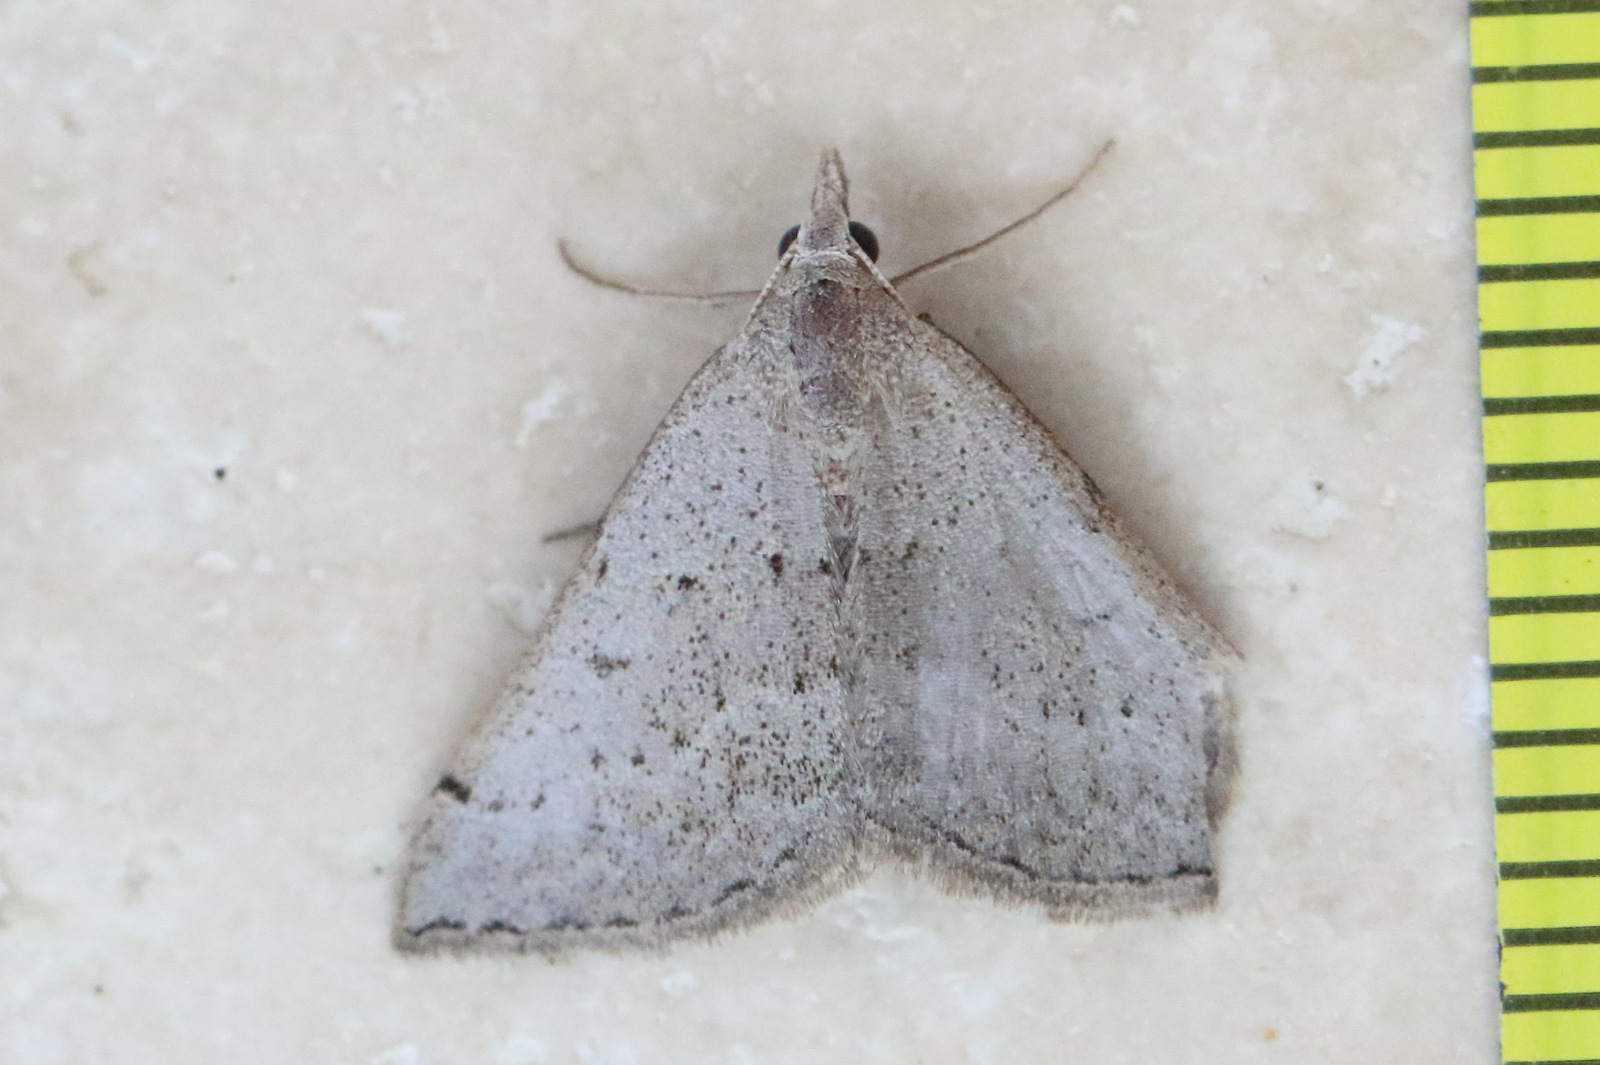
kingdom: Animalia
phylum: Arthropoda
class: Insecta
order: Lepidoptera
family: Geometridae
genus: Dichromodes
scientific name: Dichromodes usurpatrix
